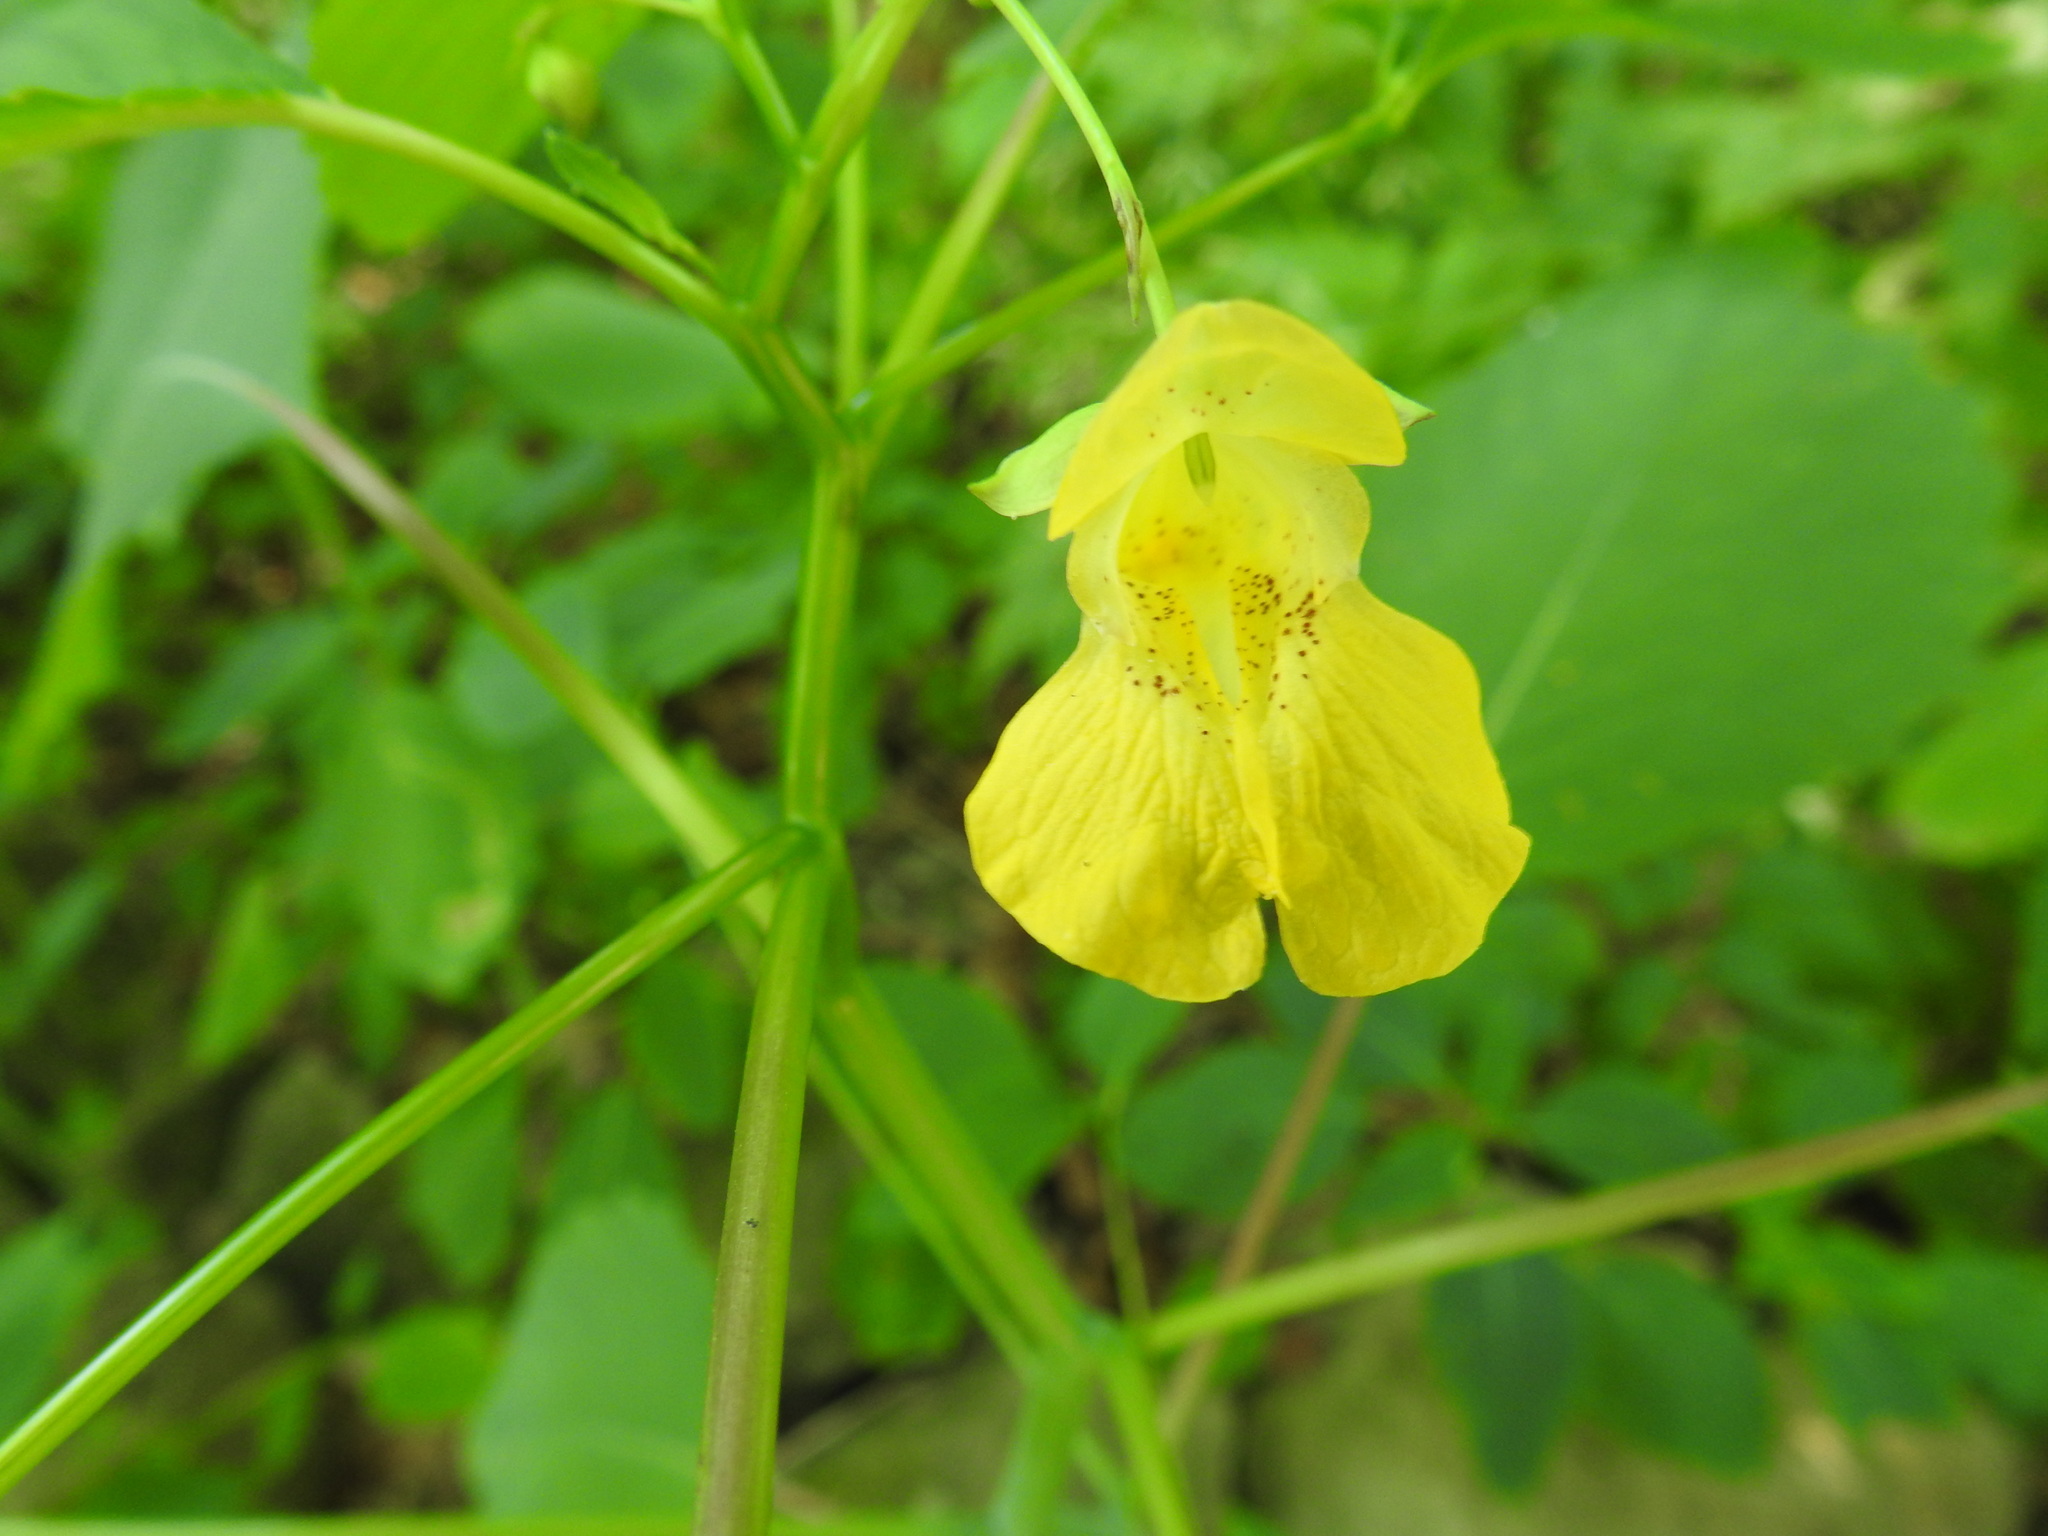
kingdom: Plantae
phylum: Tracheophyta
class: Magnoliopsida
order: Ericales
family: Balsaminaceae
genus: Impatiens
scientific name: Impatiens pallida
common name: Pale snapweed
